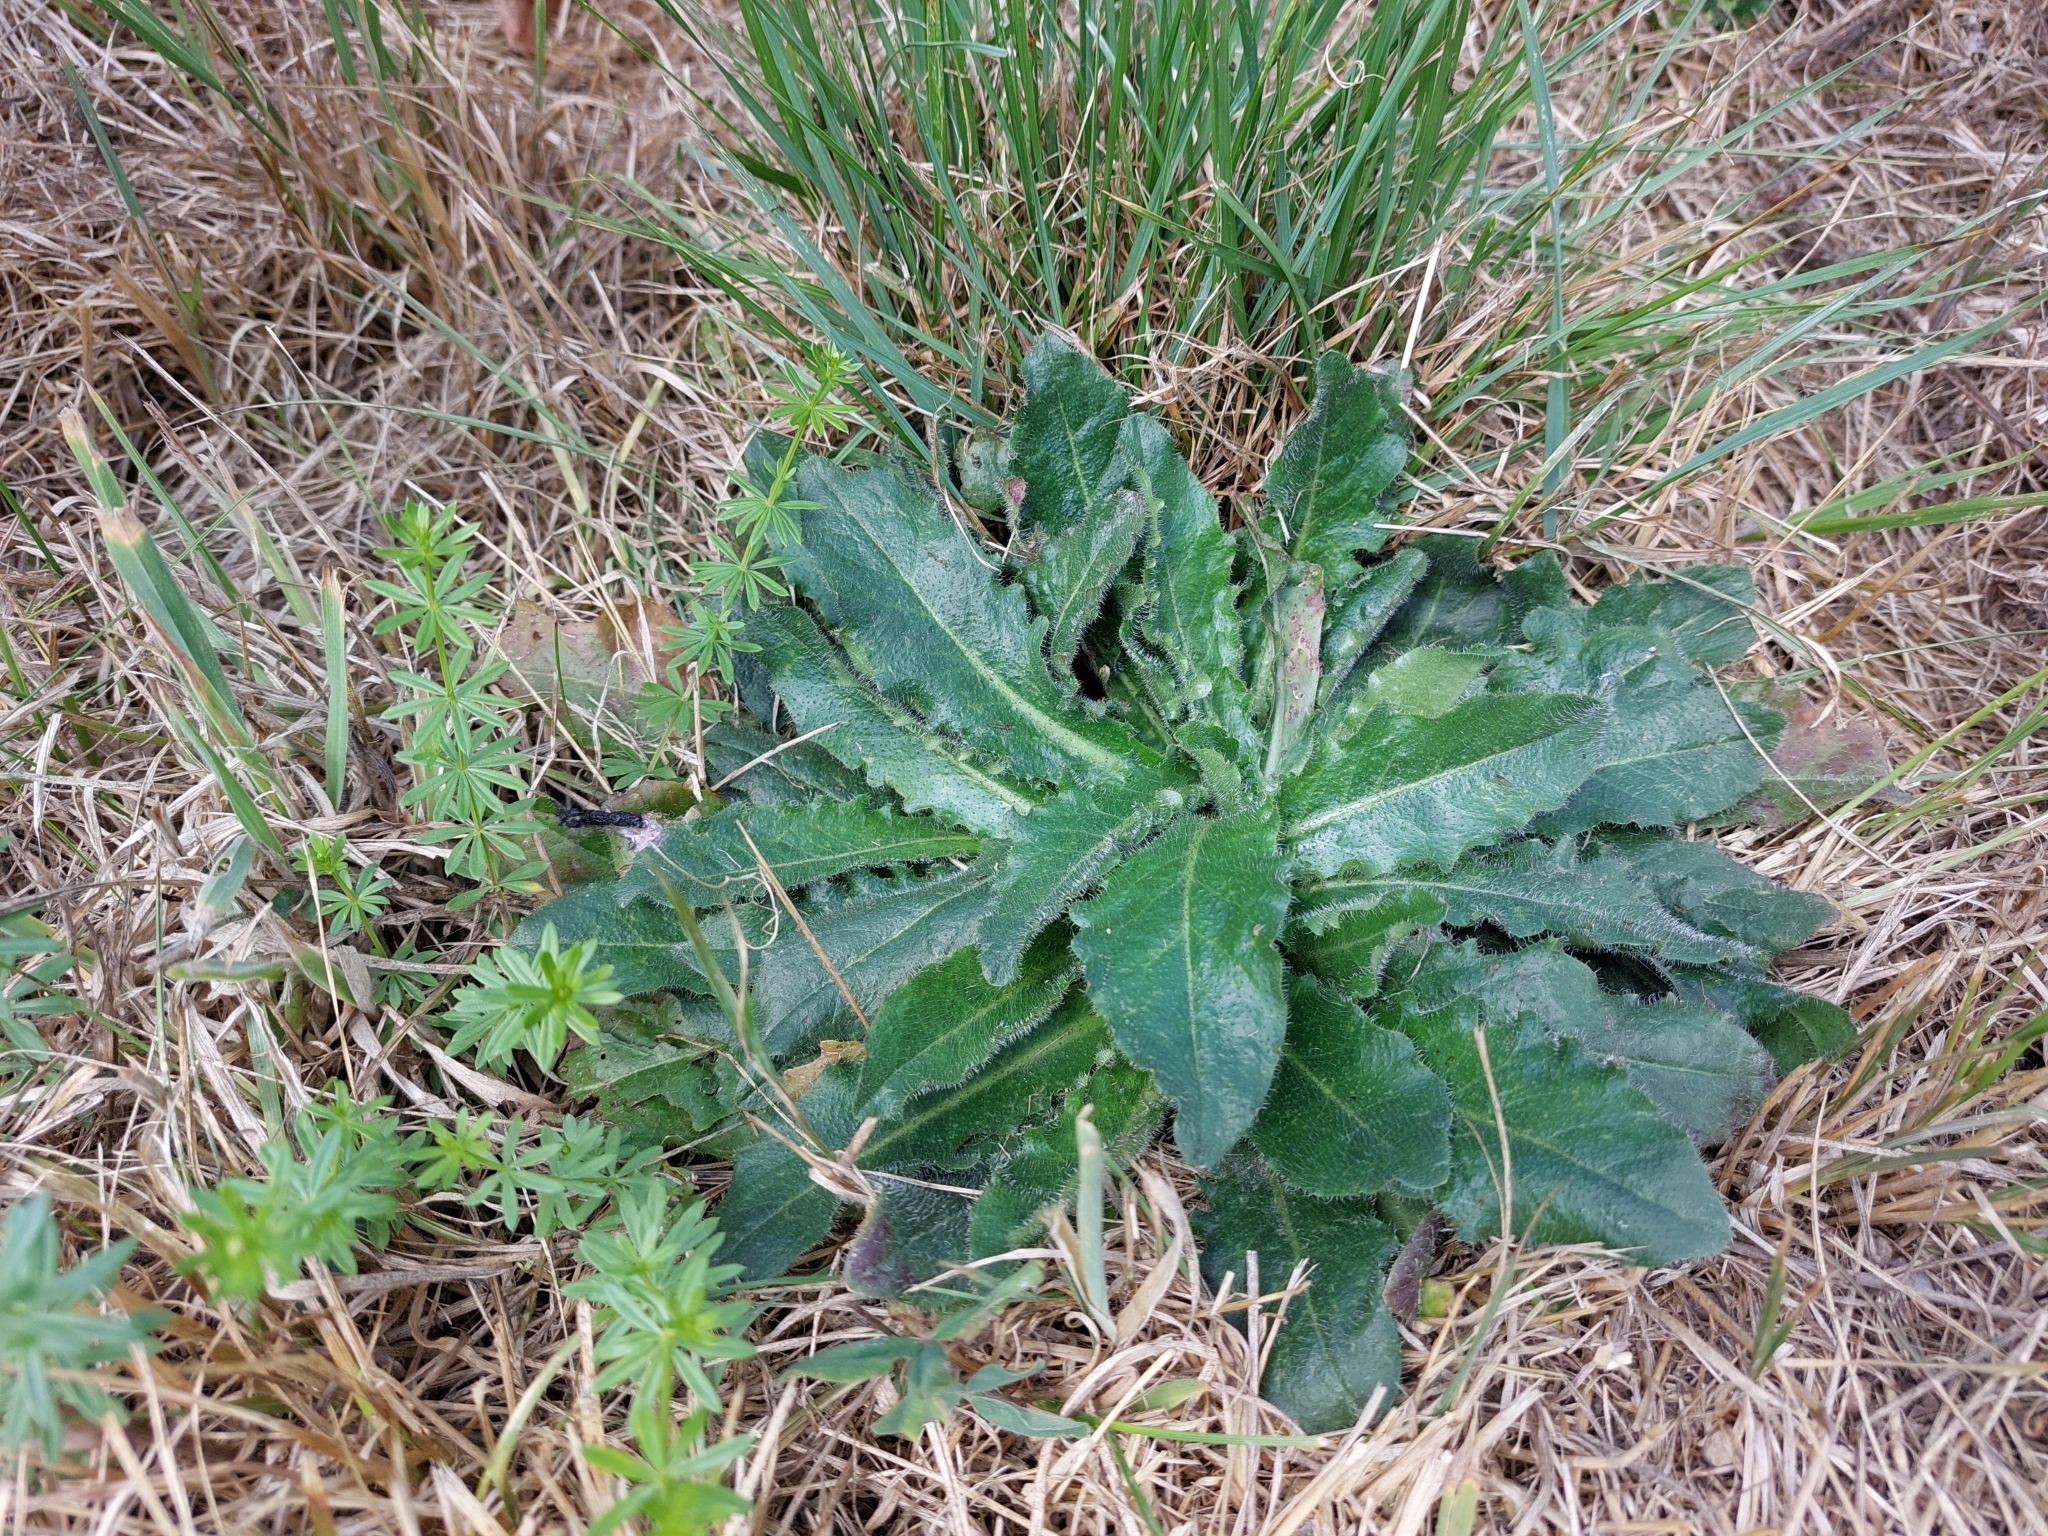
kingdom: Plantae
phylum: Tracheophyta
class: Magnoliopsida
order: Asterales
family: Asteraceae
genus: Hypochaeris
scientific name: Hypochaeris radicata
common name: Flatweed
